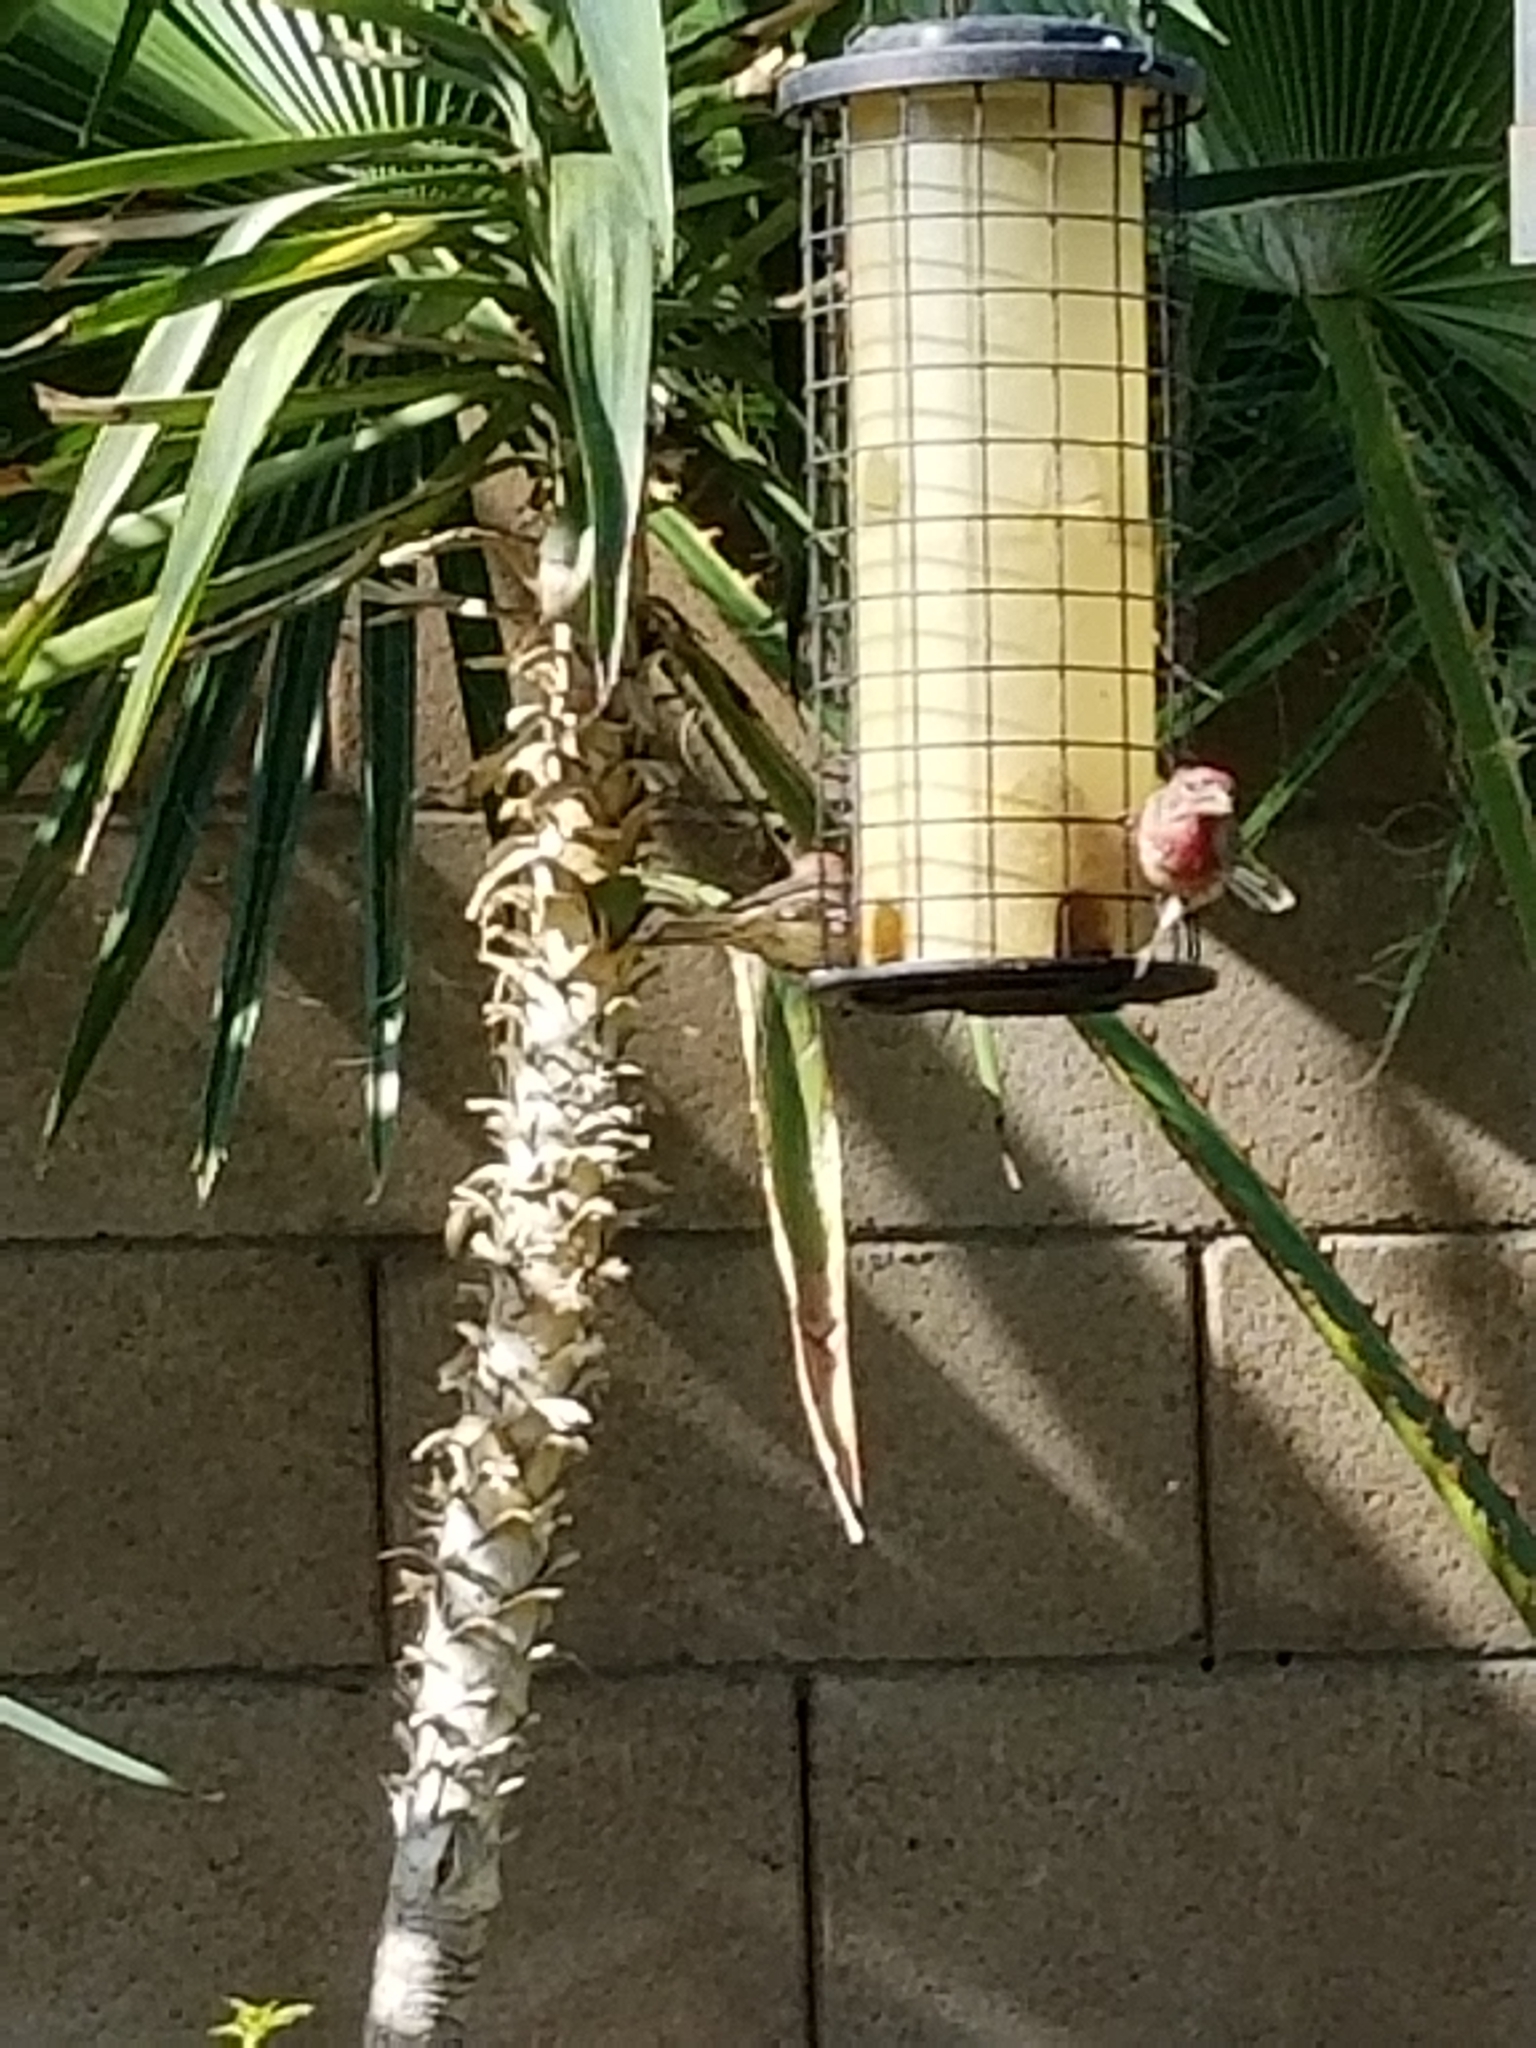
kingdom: Animalia
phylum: Chordata
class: Aves
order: Passeriformes
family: Fringillidae
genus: Haemorhous
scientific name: Haemorhous mexicanus
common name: House finch
